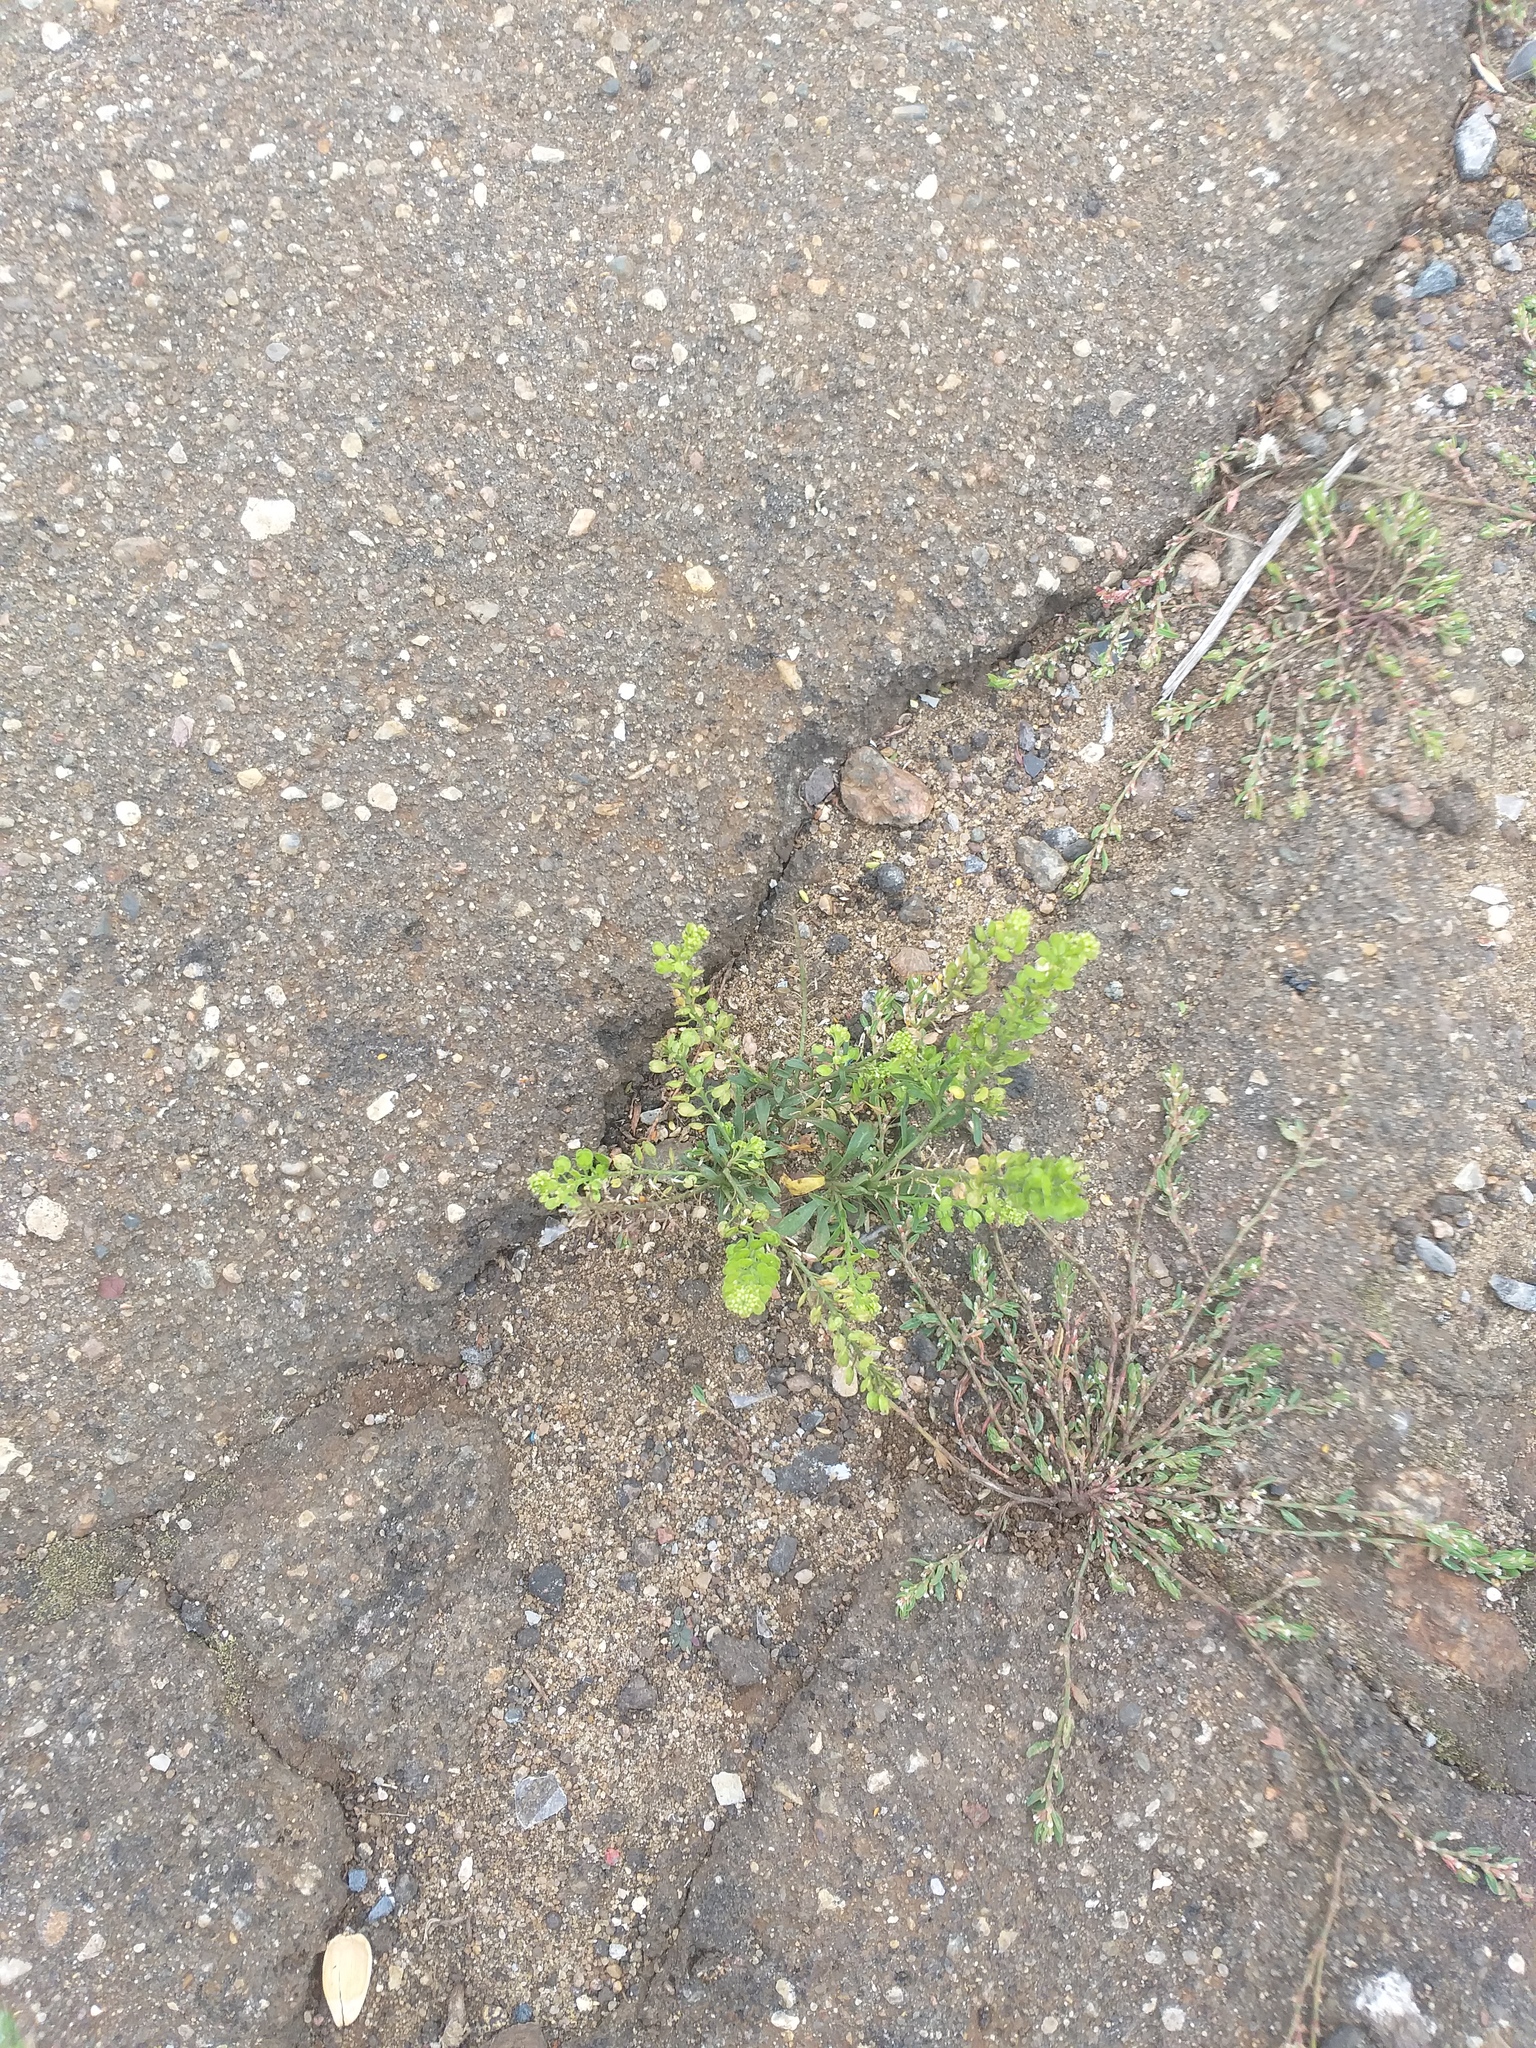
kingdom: Plantae
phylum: Tracheophyta
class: Magnoliopsida
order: Brassicales
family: Brassicaceae
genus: Lepidium
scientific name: Lepidium densiflorum
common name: Miner's pepperwort
